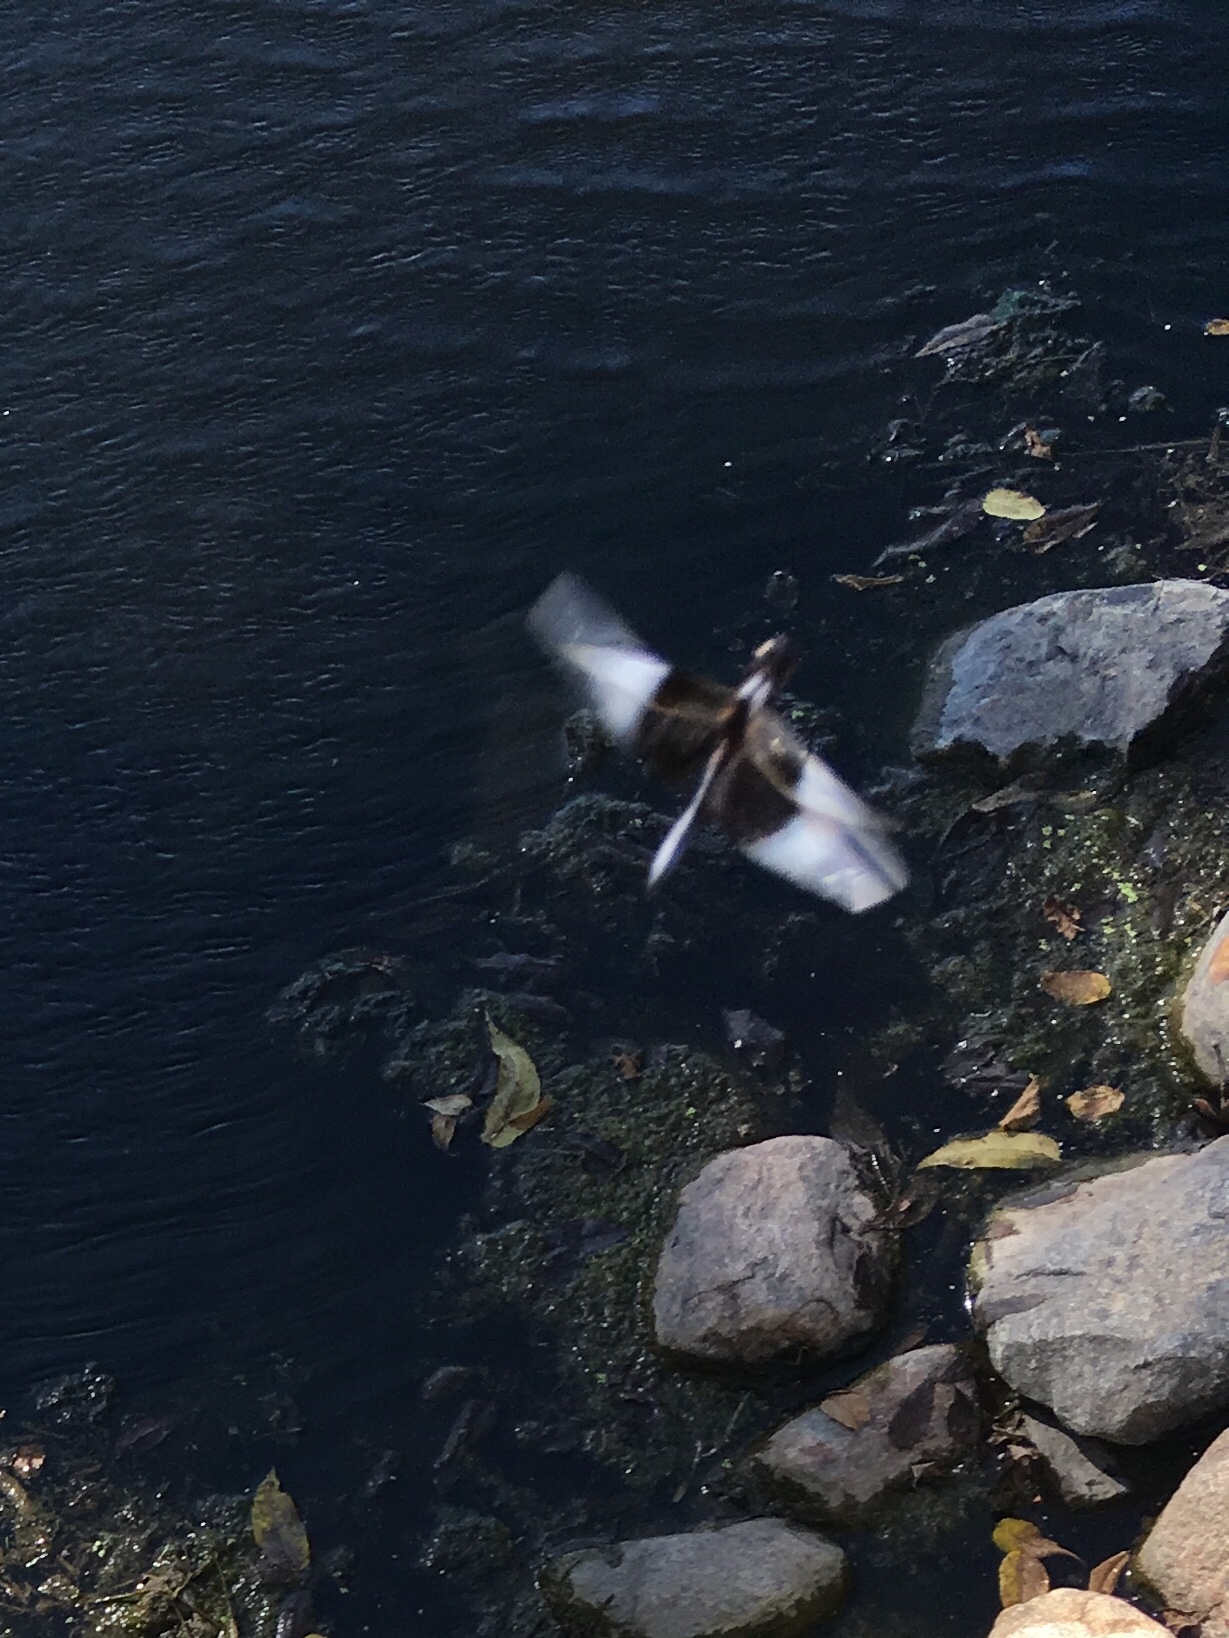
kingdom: Animalia
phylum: Arthropoda
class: Insecta
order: Odonata
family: Libellulidae
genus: Libellula
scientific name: Libellula luctuosa
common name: Widow skimmer
